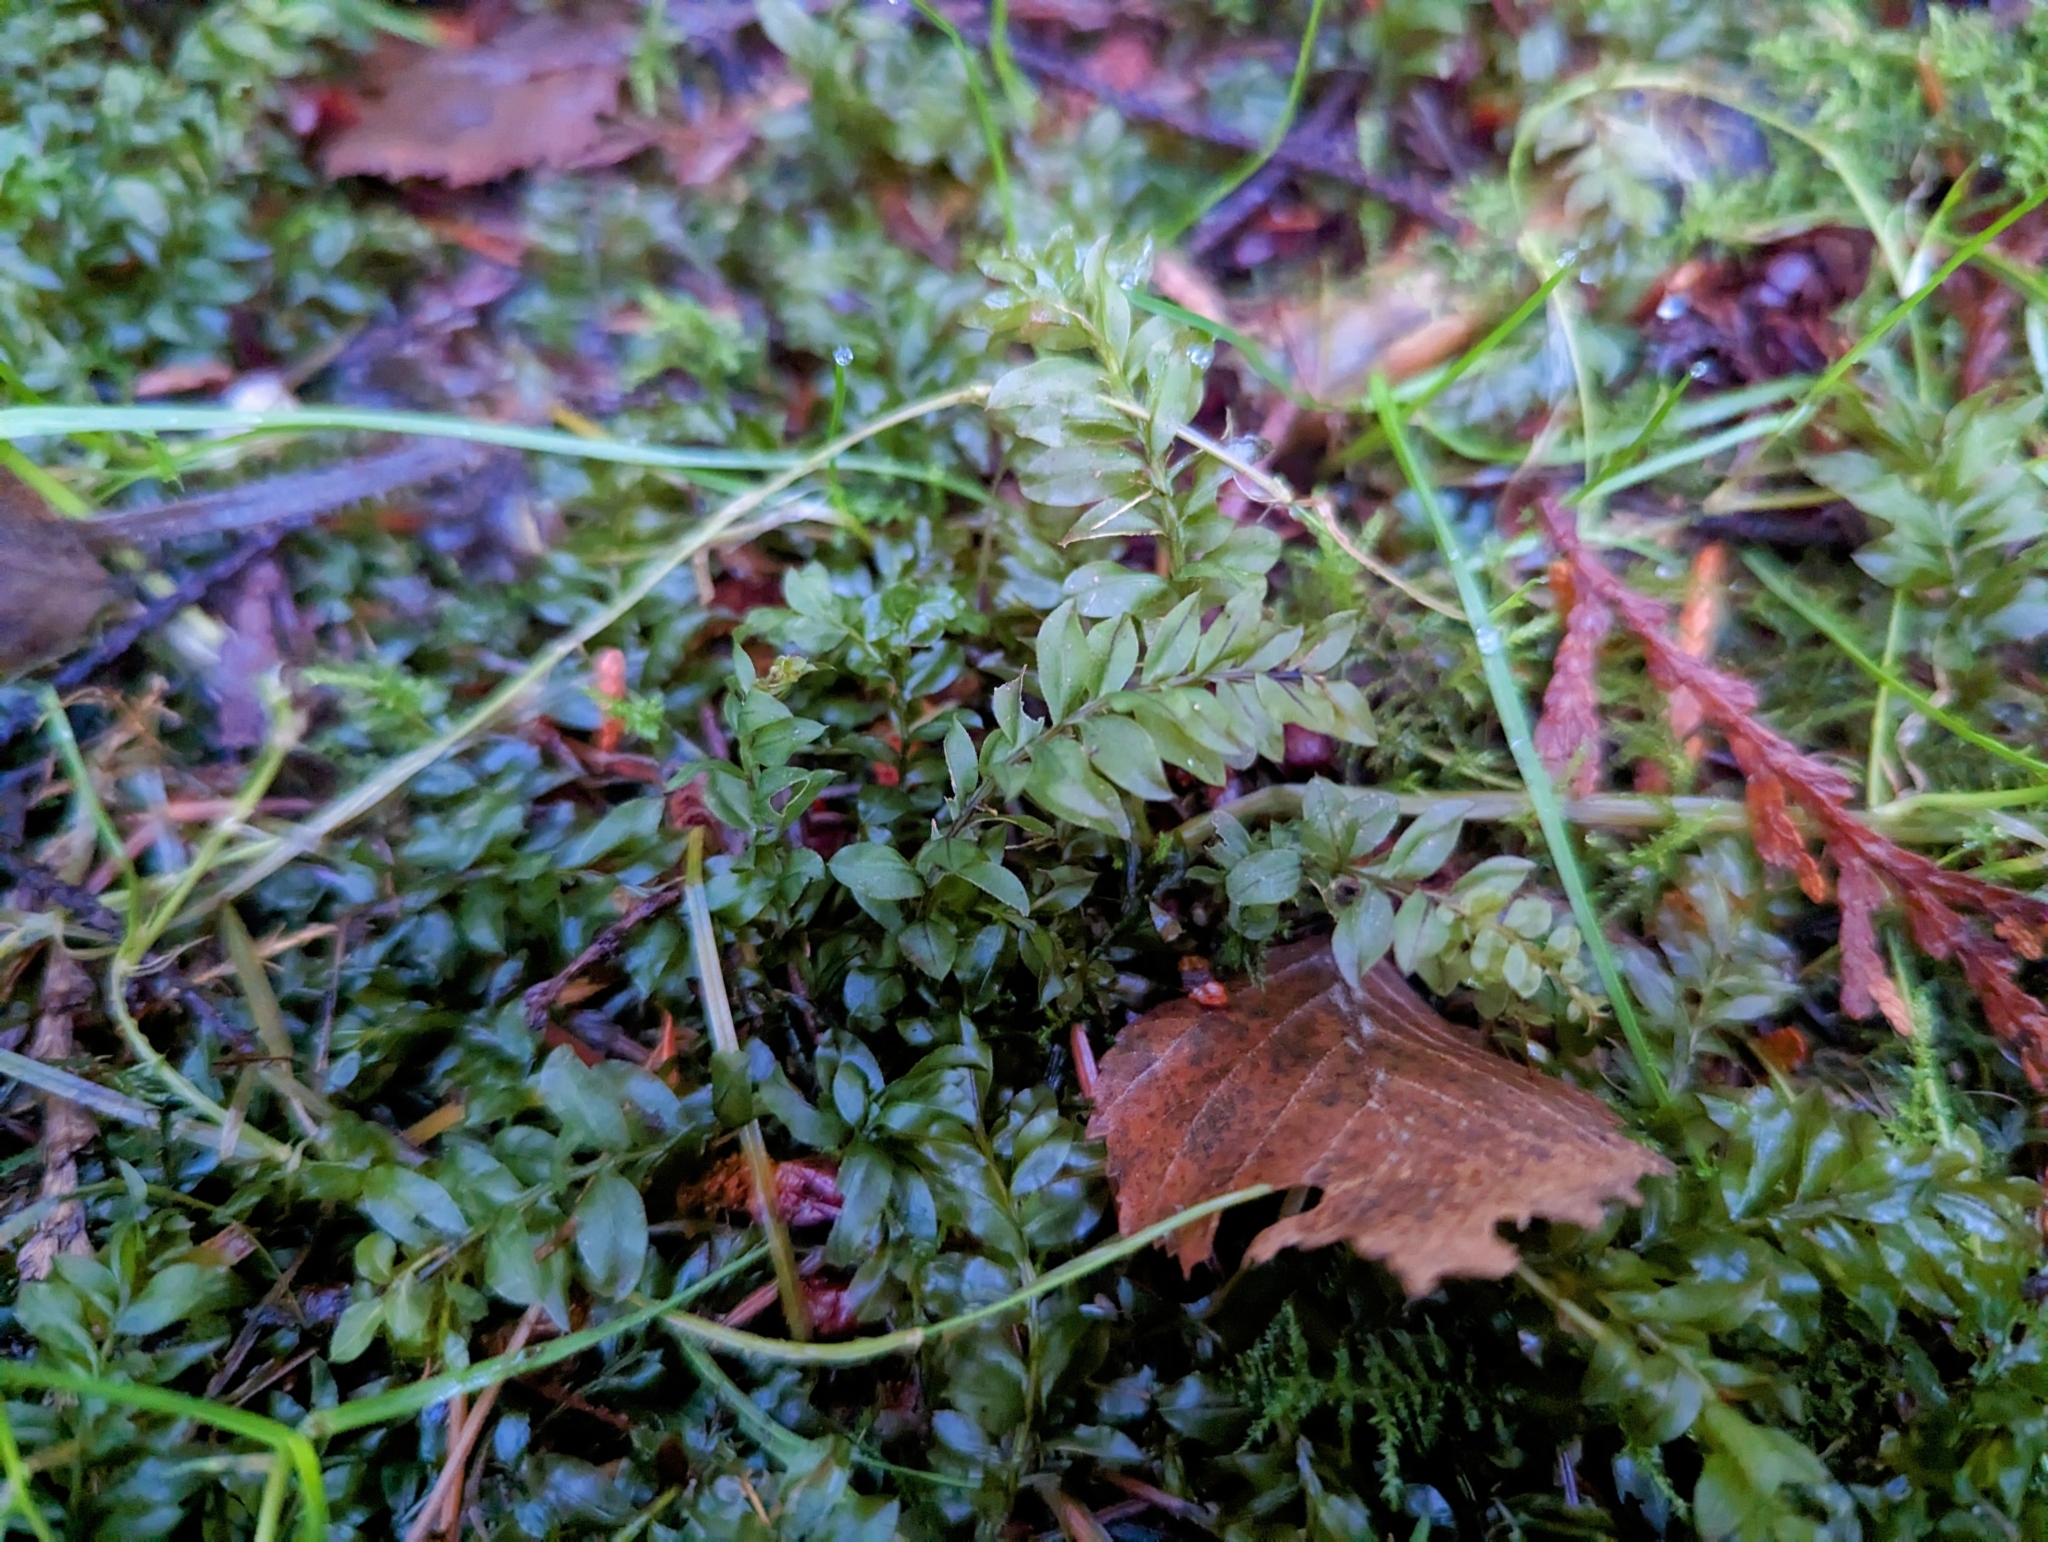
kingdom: Plantae
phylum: Bryophyta
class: Bryopsida
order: Bryales
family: Mniaceae
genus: Plagiomnium
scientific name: Plagiomnium insigne
